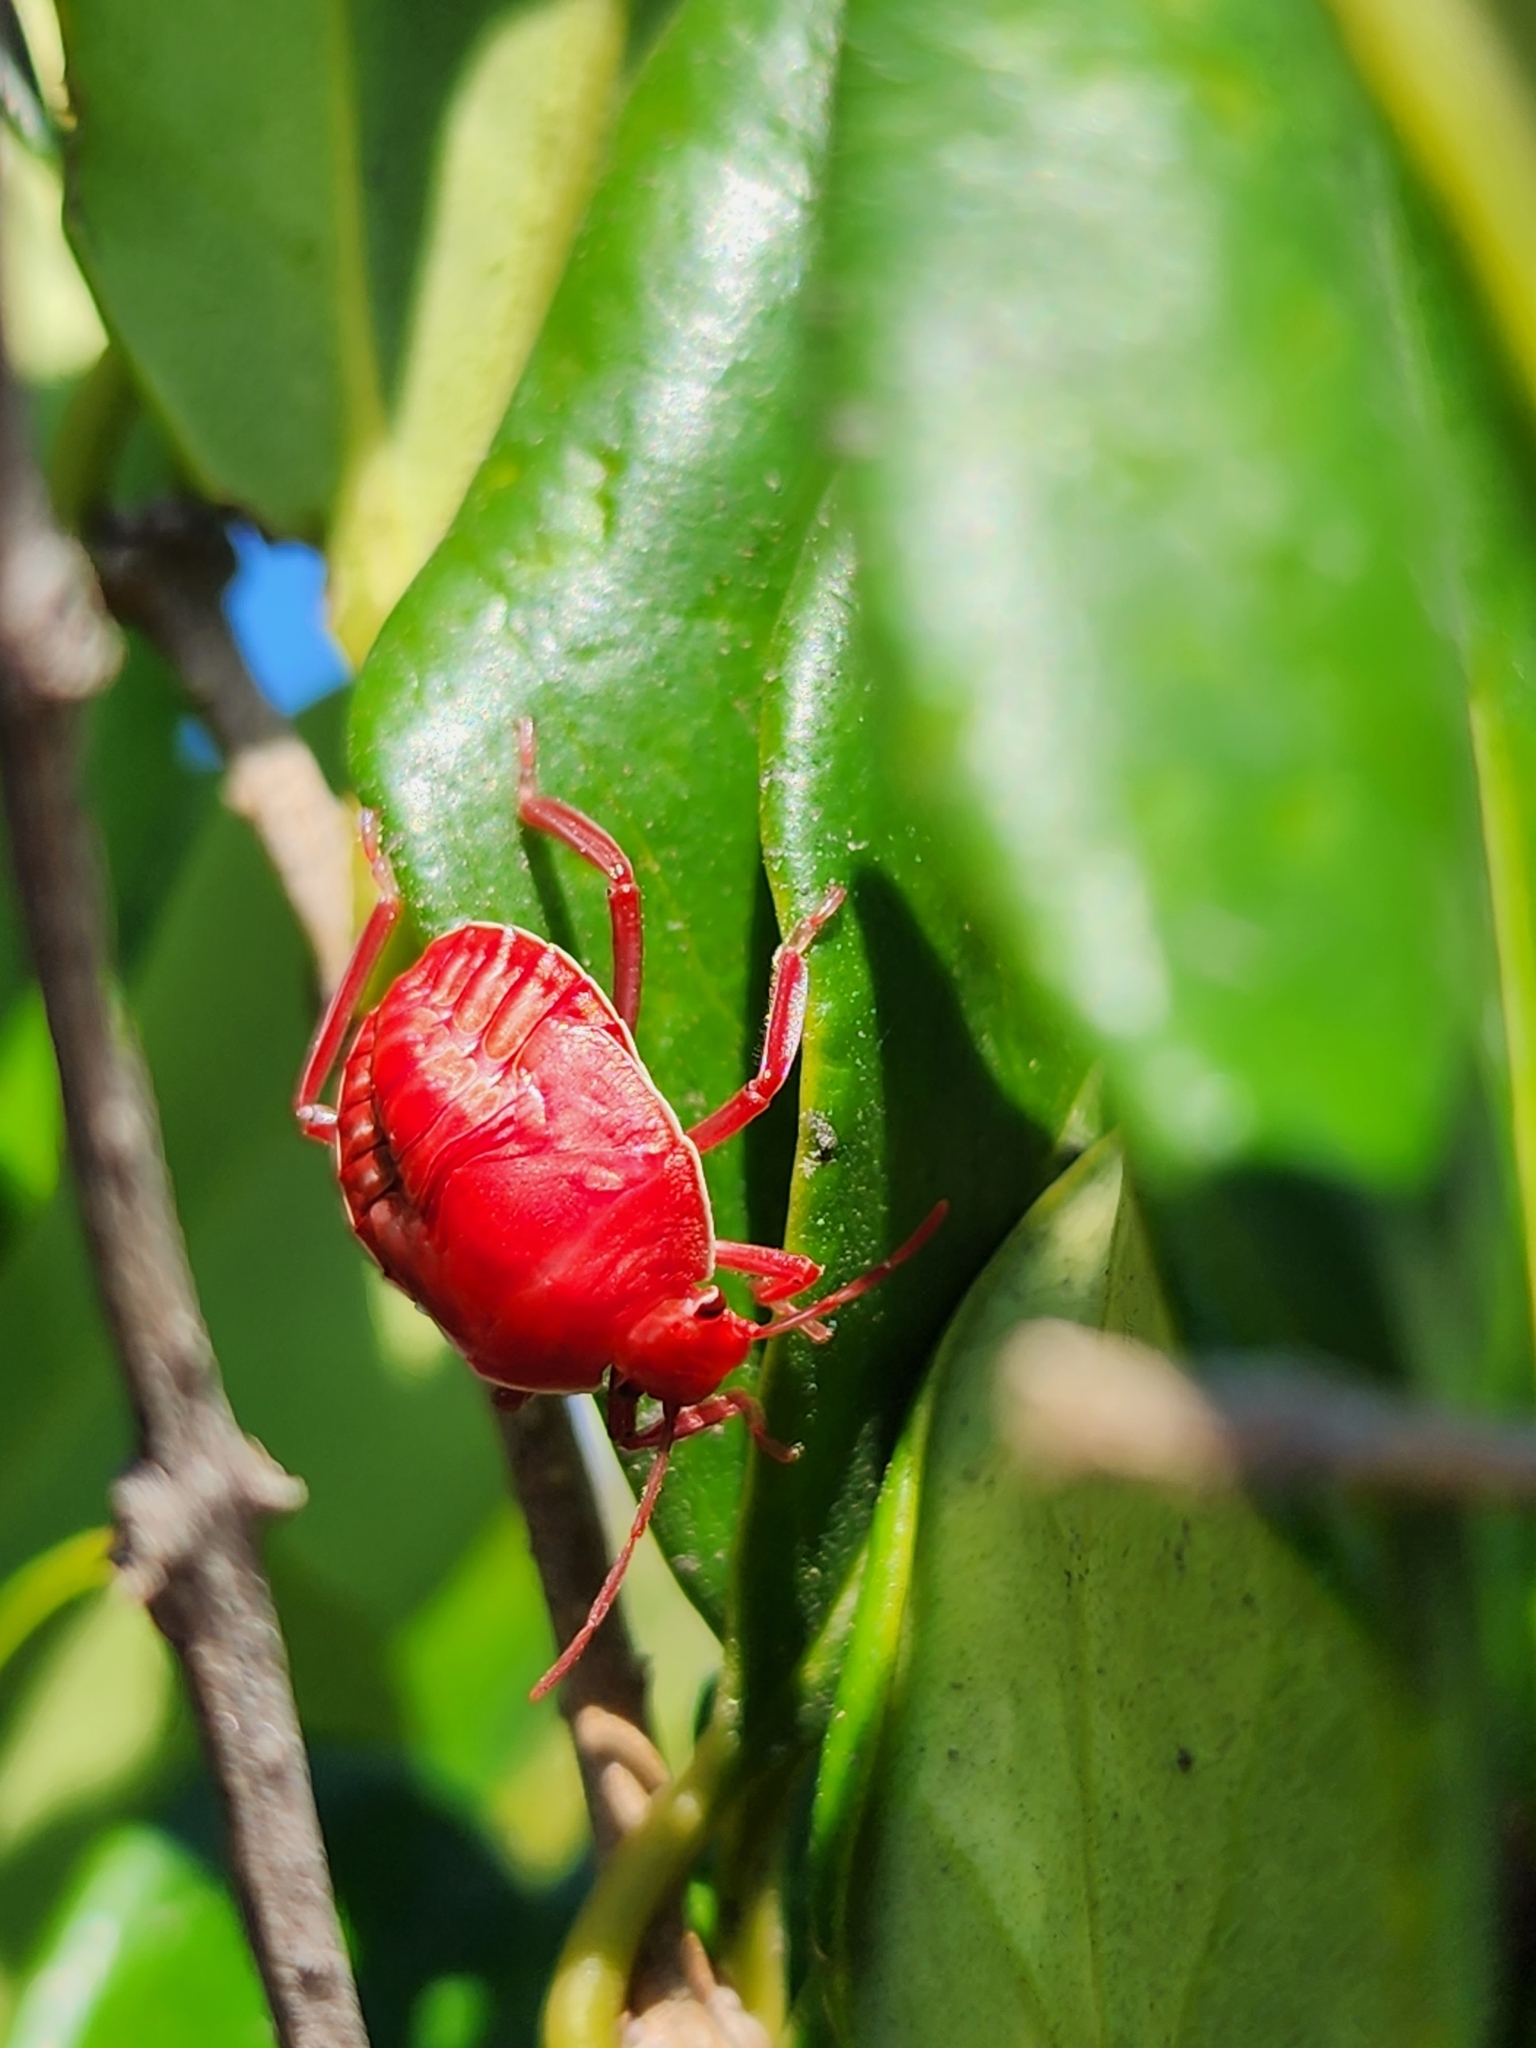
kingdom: Animalia
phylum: Arthropoda
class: Insecta
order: Hemiptera
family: Pentatomidae
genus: Pellaea
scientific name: Pellaea stictica
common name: Stink bug
